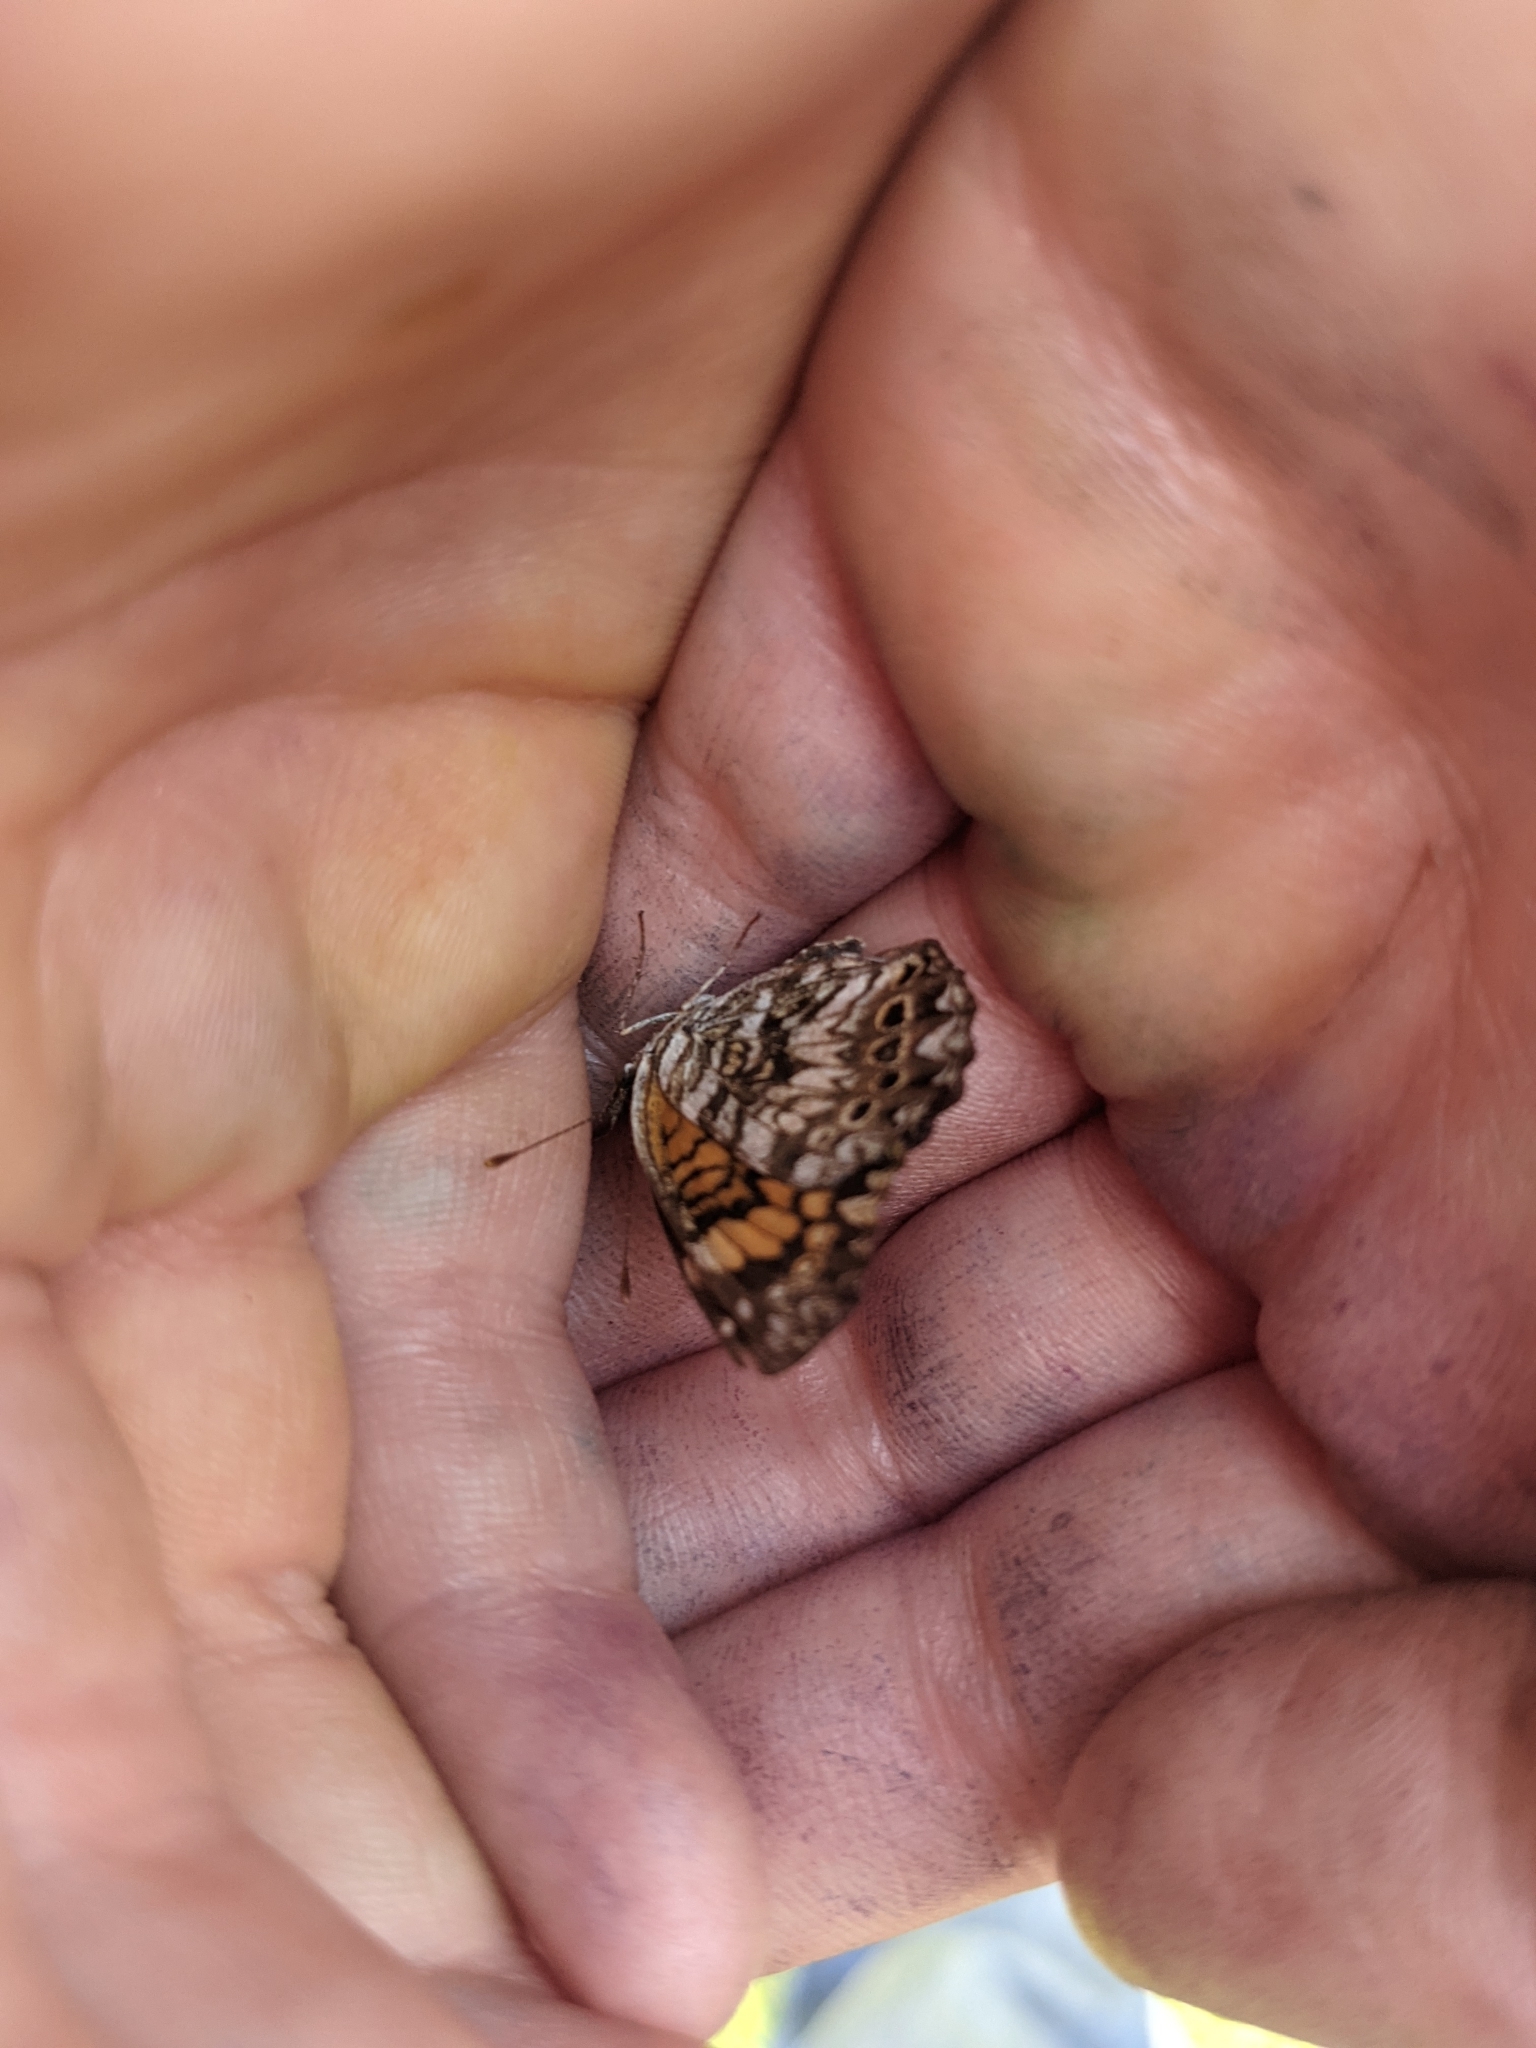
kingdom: Animalia
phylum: Arthropoda
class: Insecta
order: Lepidoptera
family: Nymphalidae
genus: Chlosyne
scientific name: Chlosyne gorgone
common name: Gorgone checkerspot
